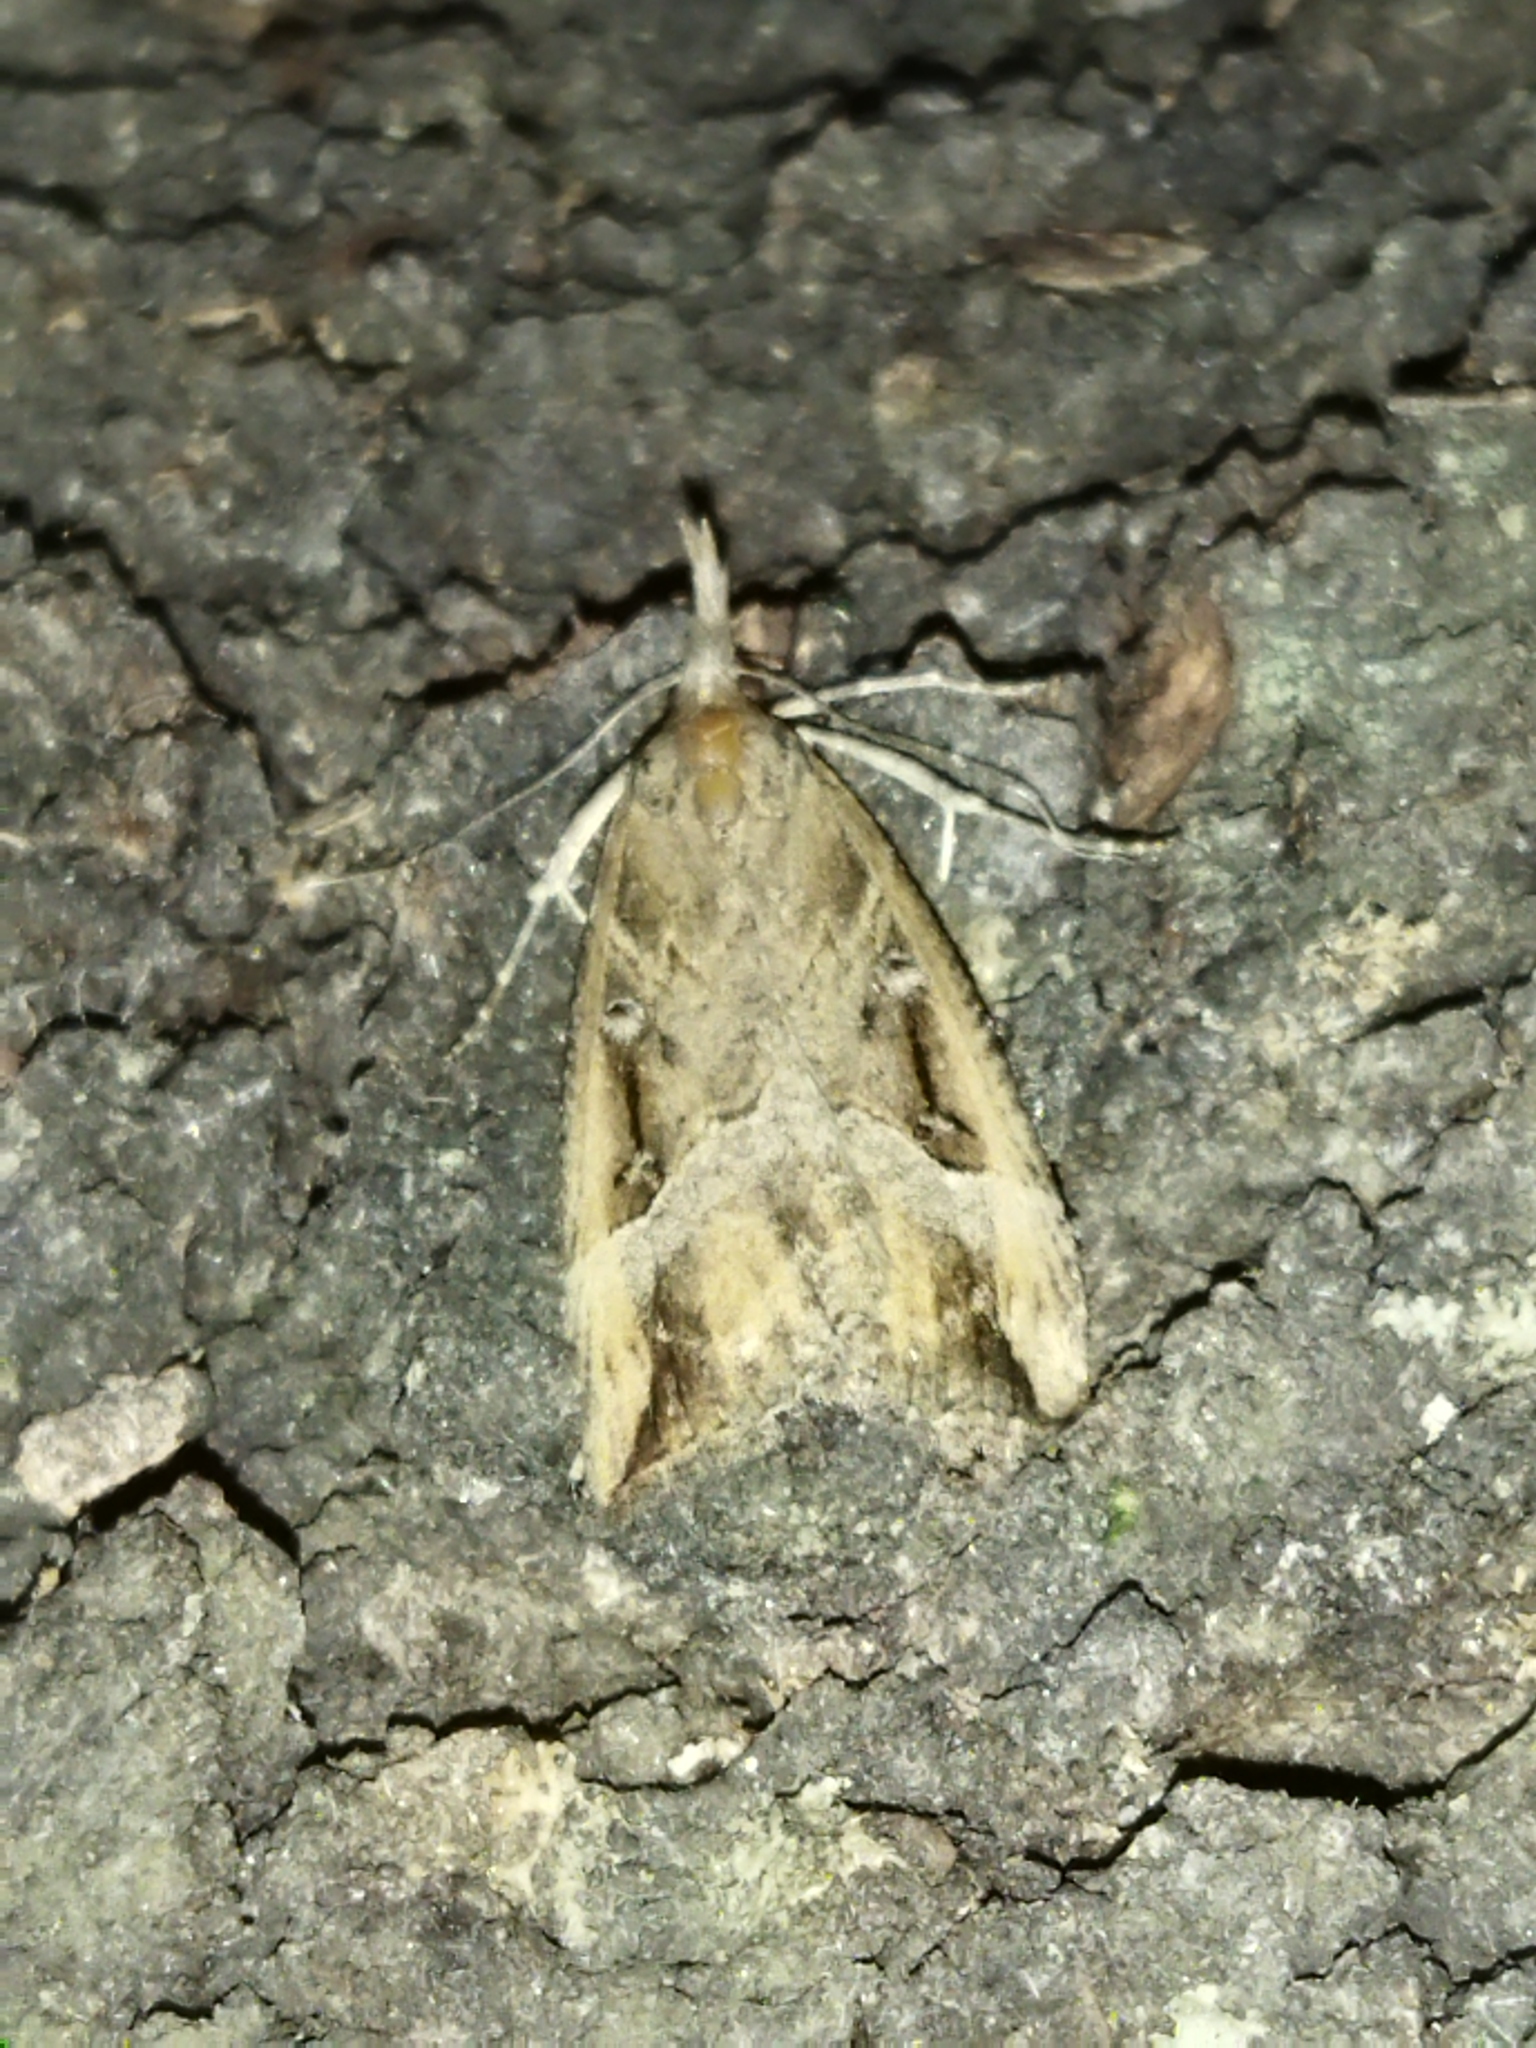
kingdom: Animalia
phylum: Arthropoda
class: Insecta
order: Lepidoptera
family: Erebidae
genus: Hypena
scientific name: Hypena rostralis
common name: Buttoned snout
